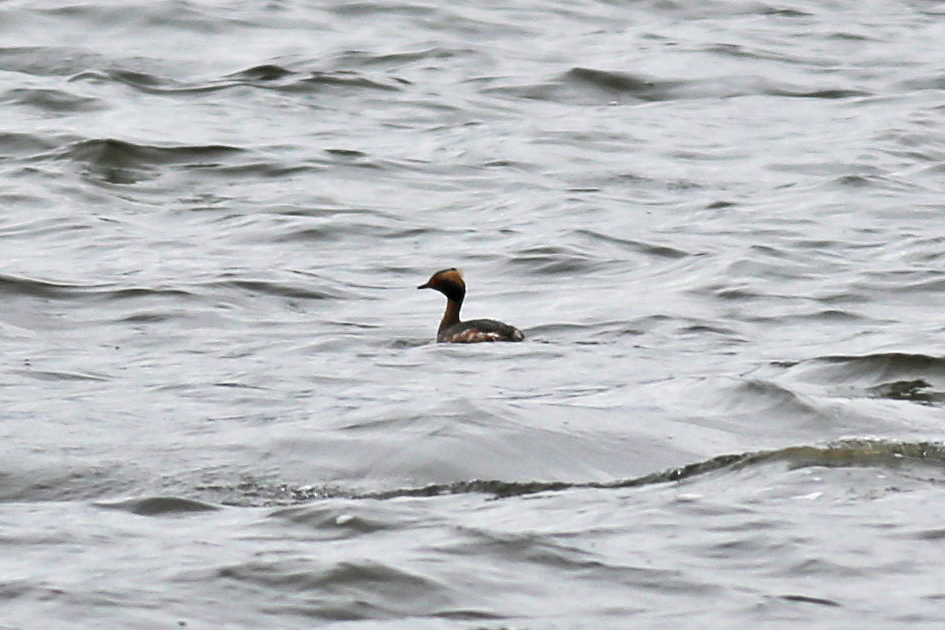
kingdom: Animalia
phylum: Chordata
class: Aves
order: Podicipediformes
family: Podicipedidae
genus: Podiceps
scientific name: Podiceps auritus
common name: Horned grebe
